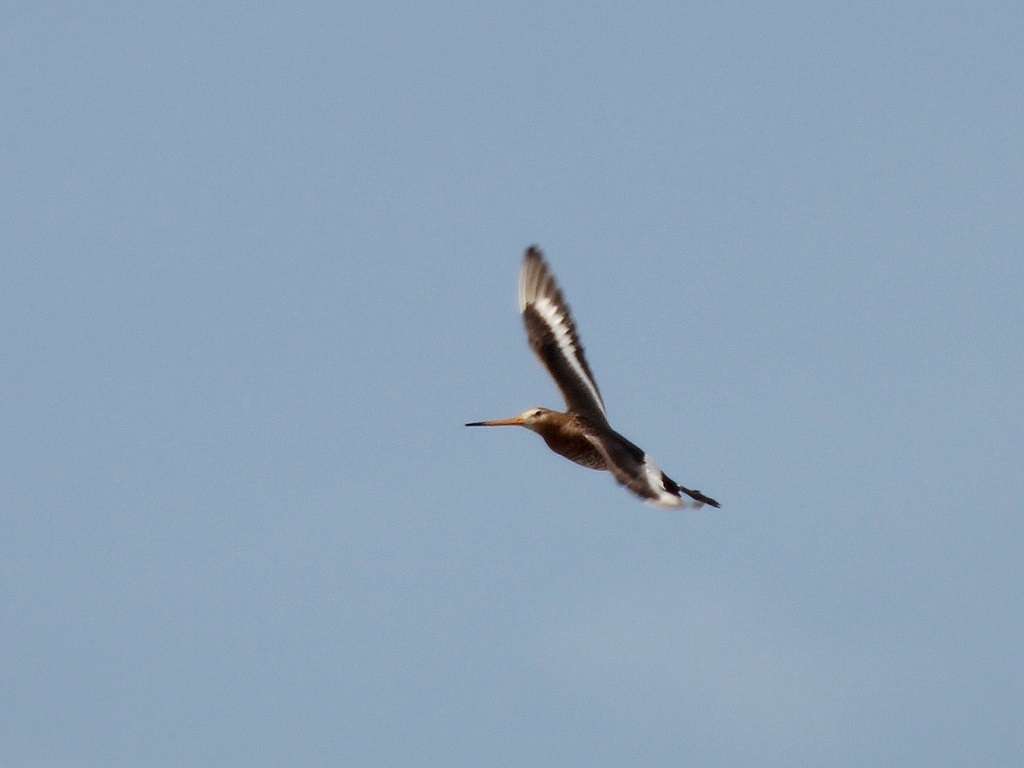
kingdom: Animalia
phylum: Chordata
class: Aves
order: Charadriiformes
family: Scolopacidae
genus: Limosa
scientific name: Limosa limosa
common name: Black-tailed godwit
